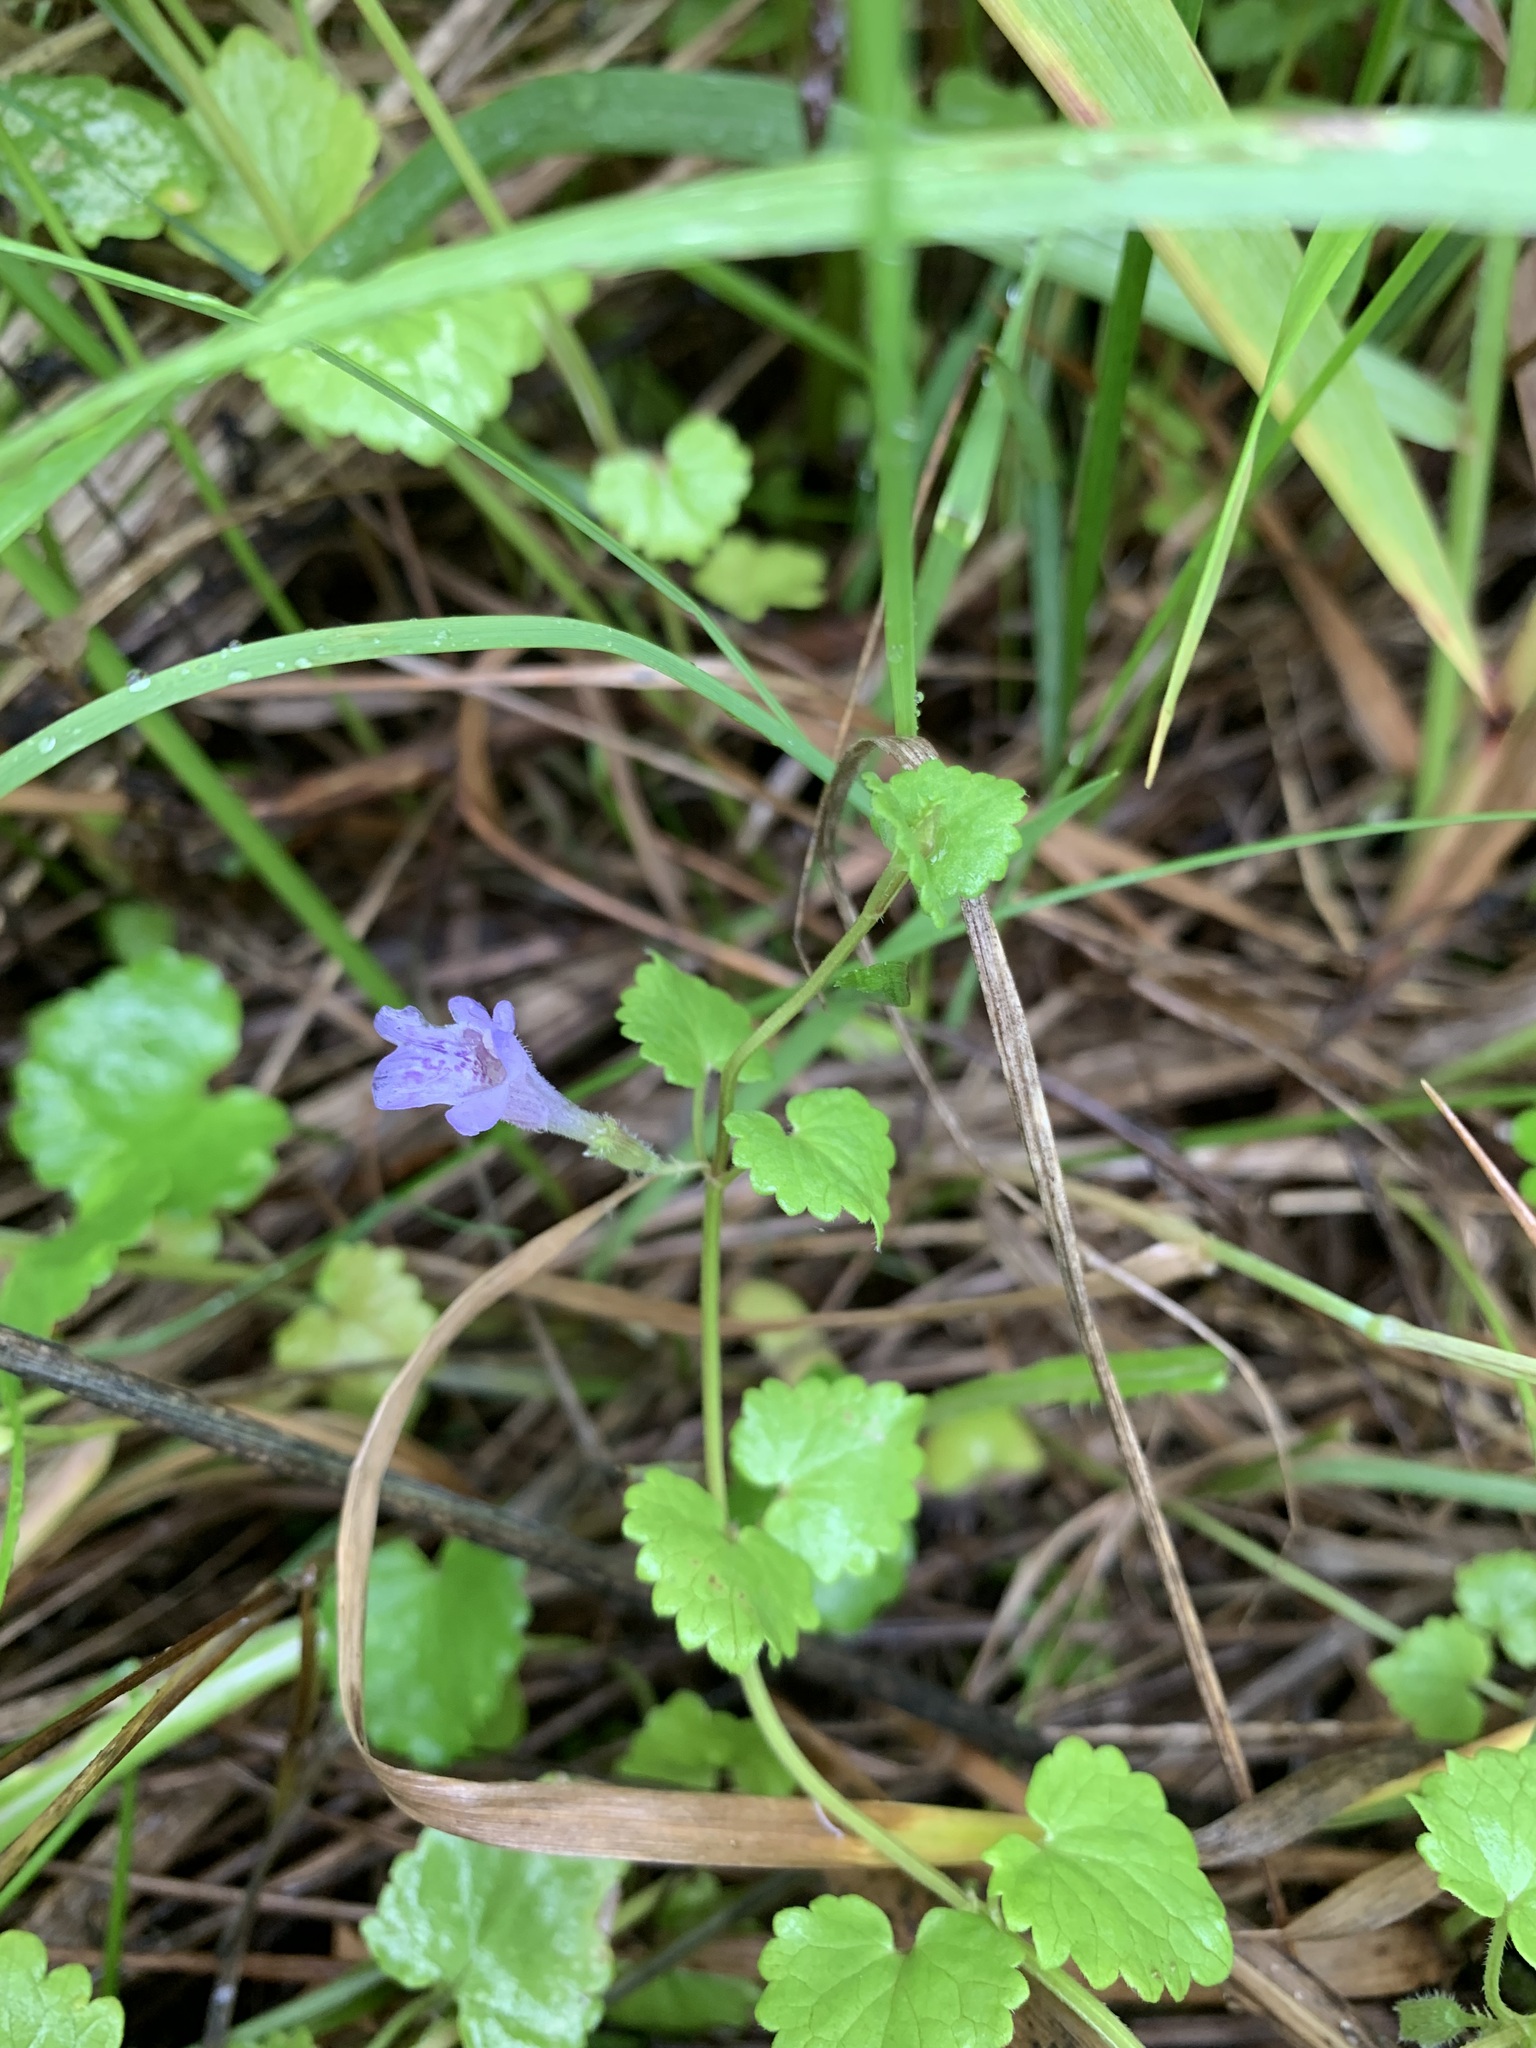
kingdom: Plantae
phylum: Tracheophyta
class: Magnoliopsida
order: Lamiales
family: Lamiaceae
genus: Glechoma
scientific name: Glechoma hederacea
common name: Ground ivy
